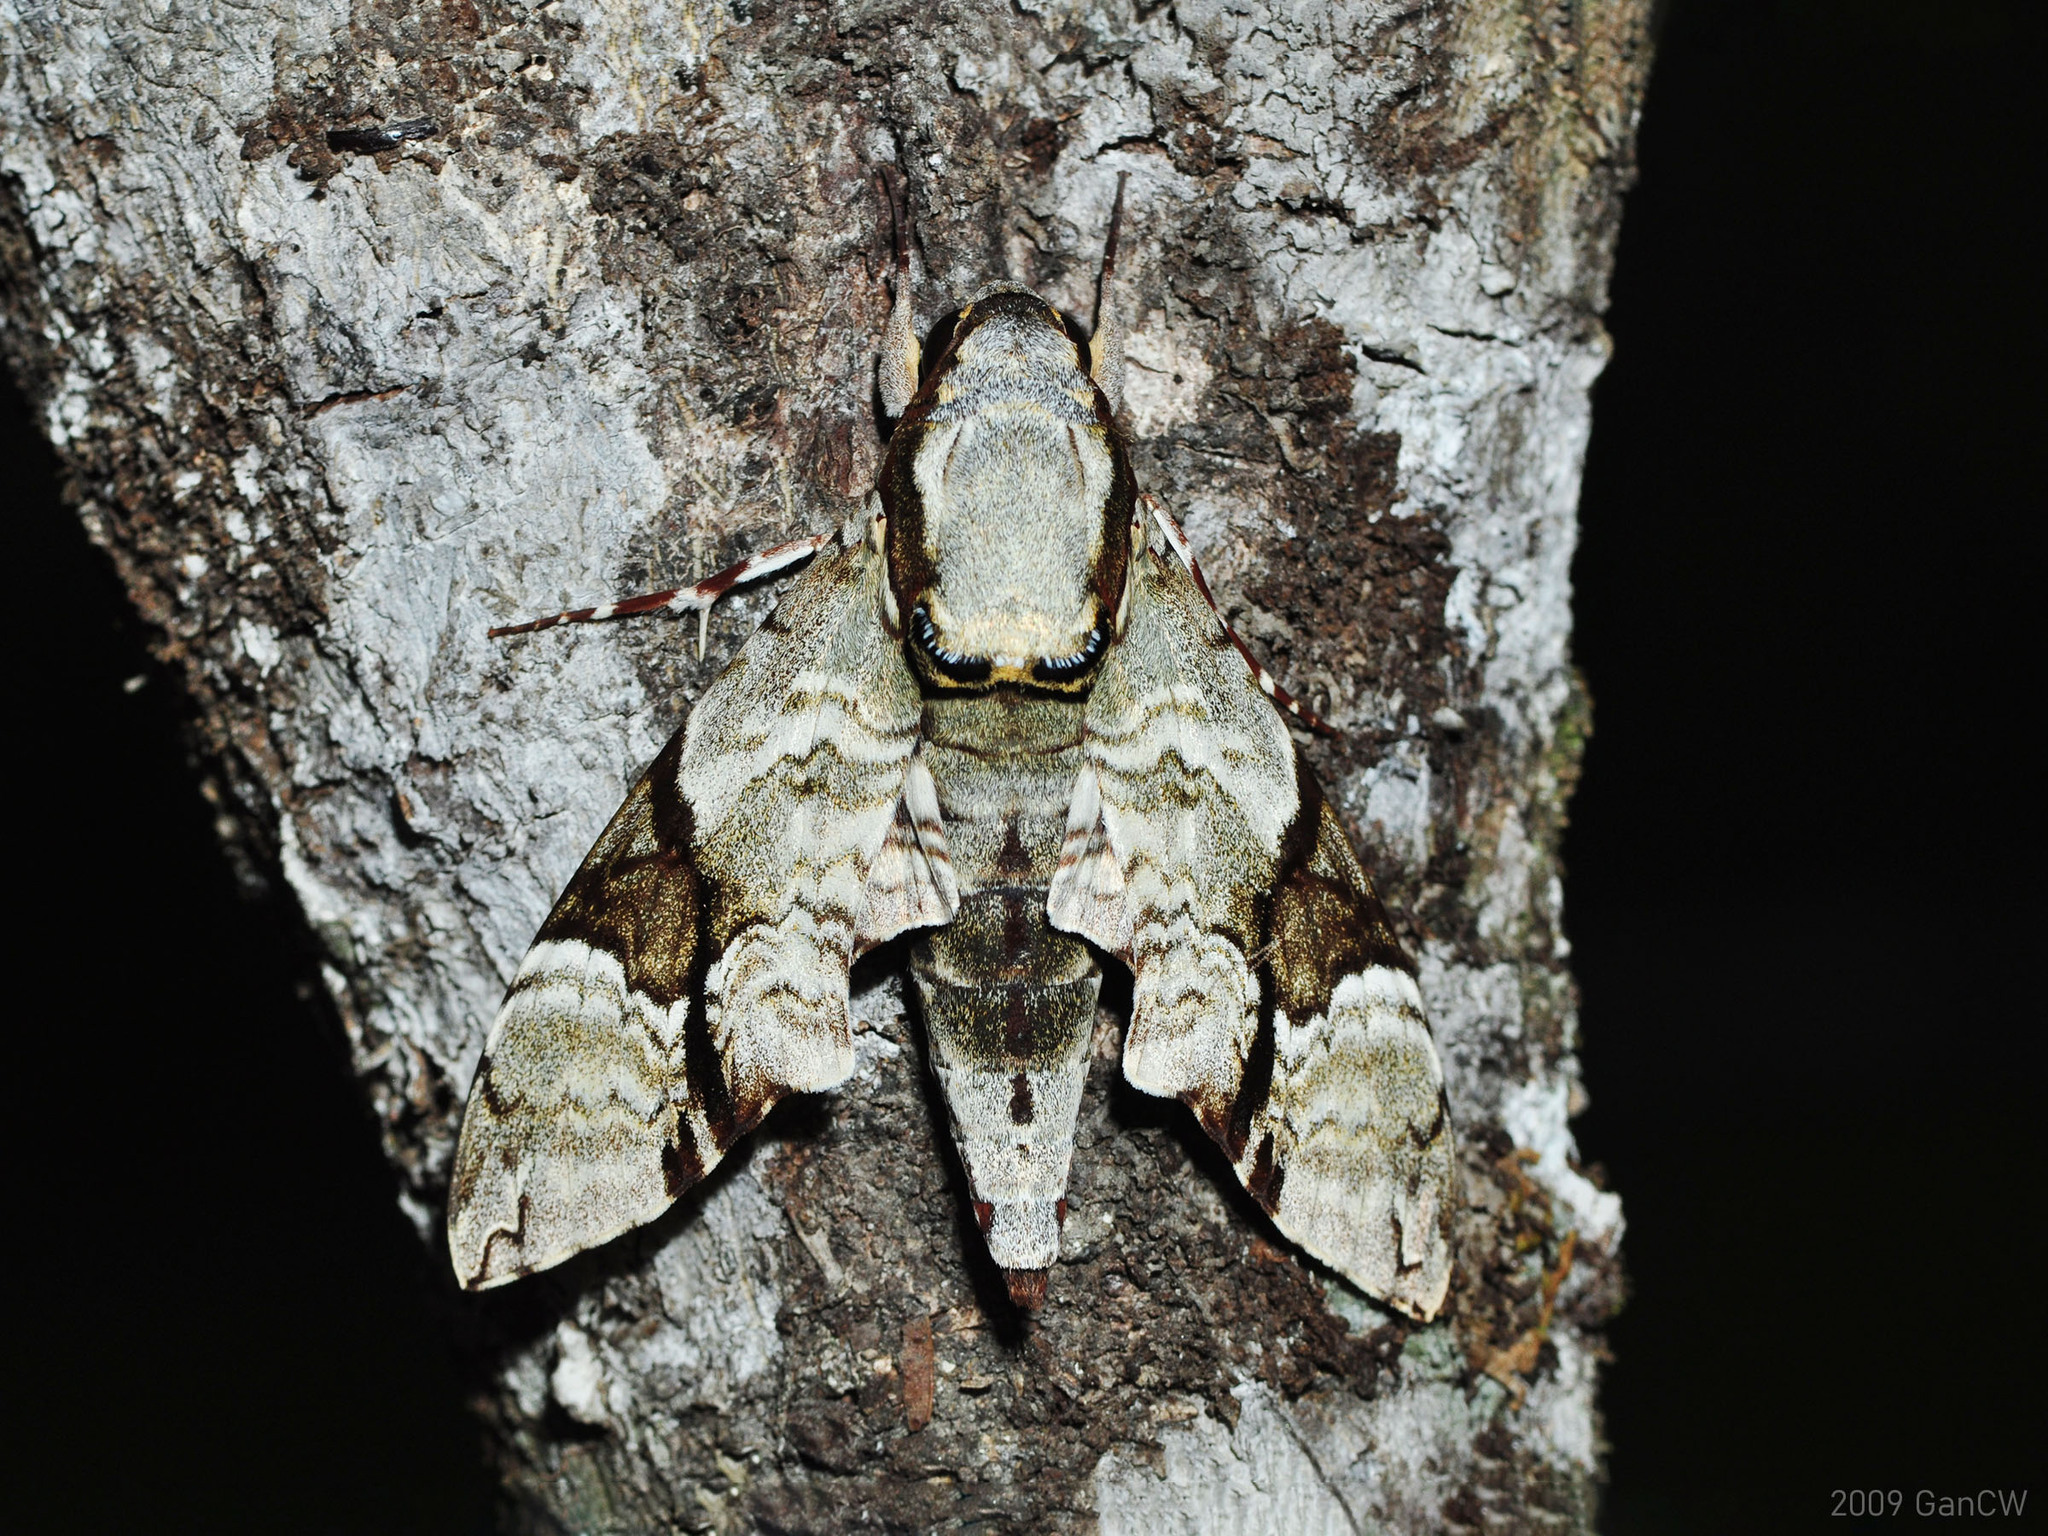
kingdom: Animalia
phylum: Arthropoda
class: Insecta
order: Lepidoptera
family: Sphingidae
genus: Megacorma
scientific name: Megacorma obliqua
